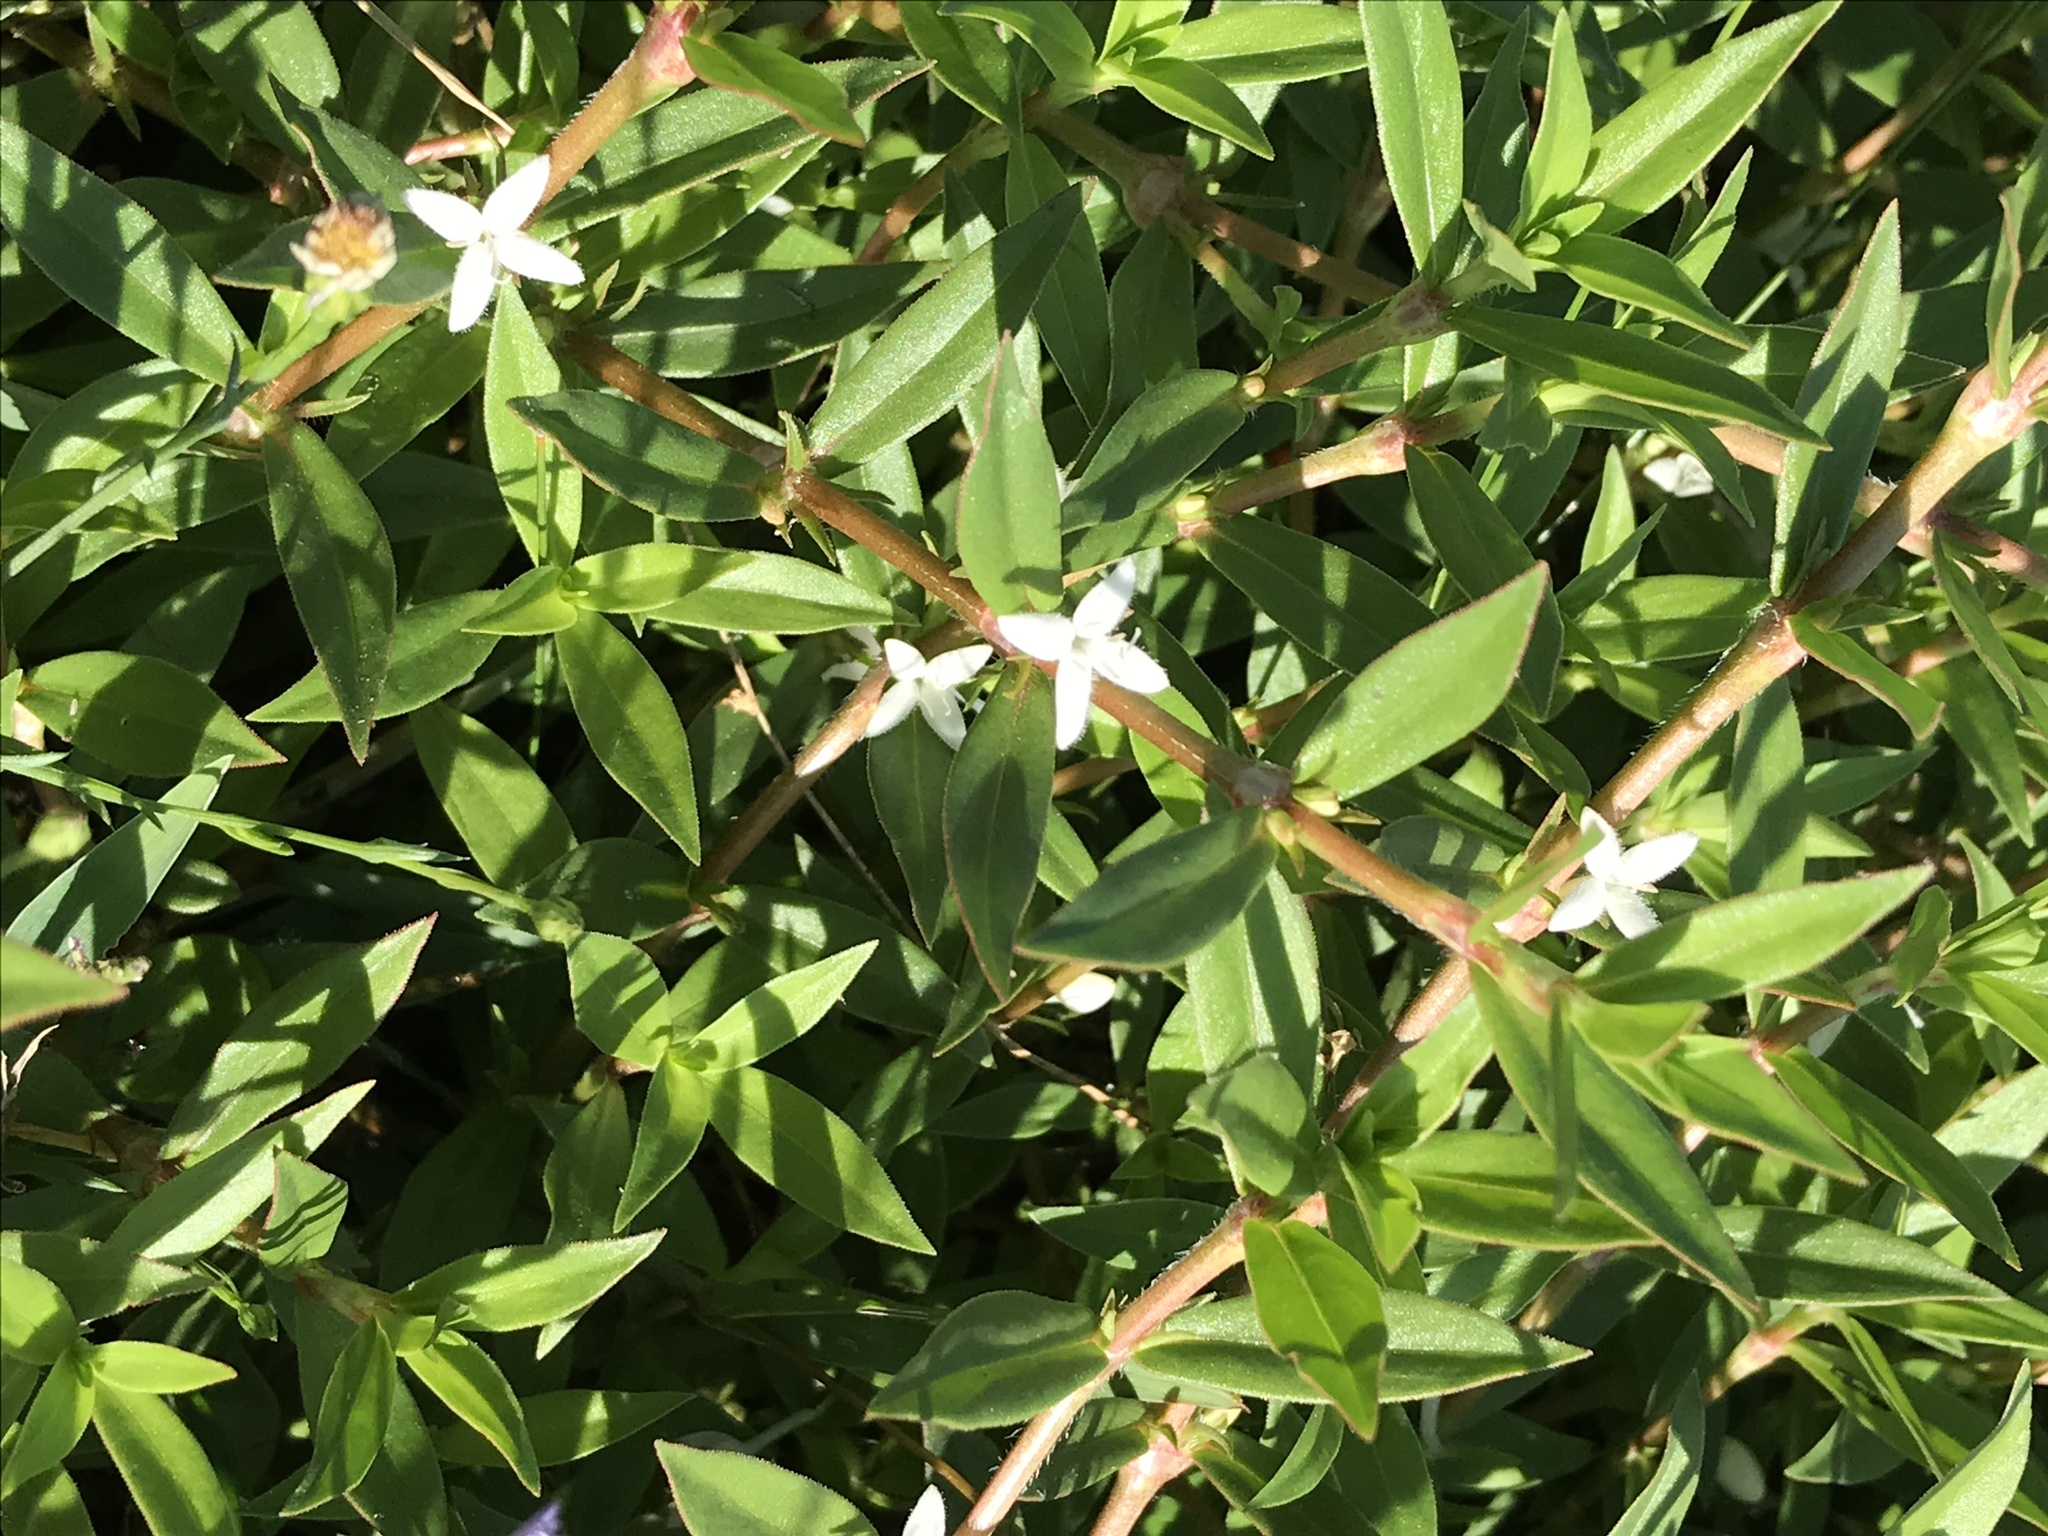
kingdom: Plantae
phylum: Tracheophyta
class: Magnoliopsida
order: Gentianales
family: Rubiaceae
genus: Diodia
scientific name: Diodia virginiana
